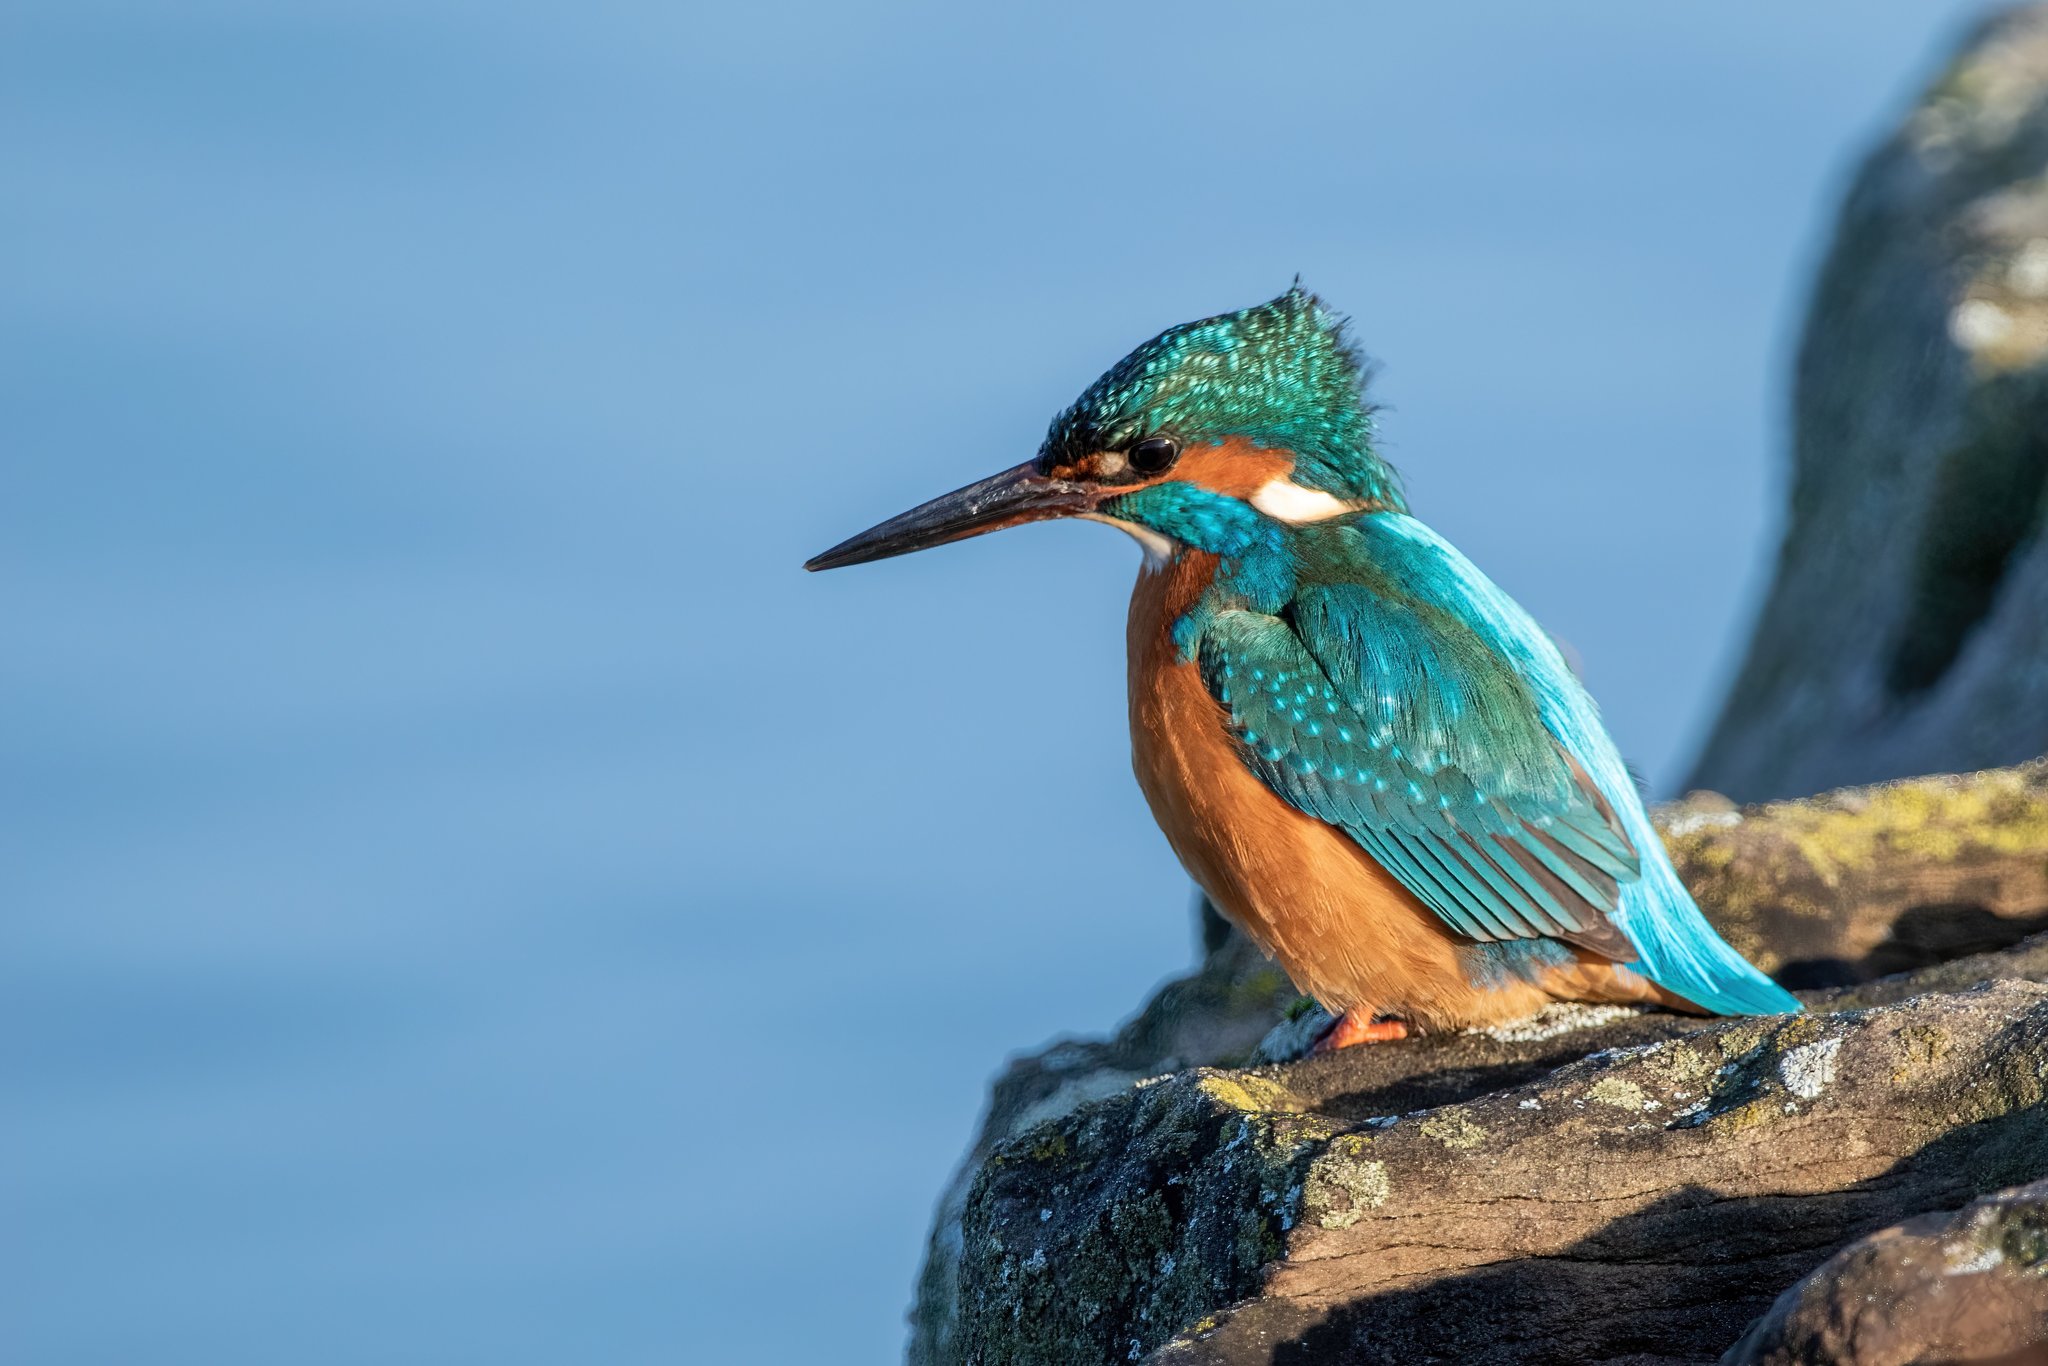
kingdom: Animalia
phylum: Chordata
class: Aves
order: Coraciiformes
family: Alcedinidae
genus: Alcedo
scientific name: Alcedo atthis
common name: Common kingfisher
